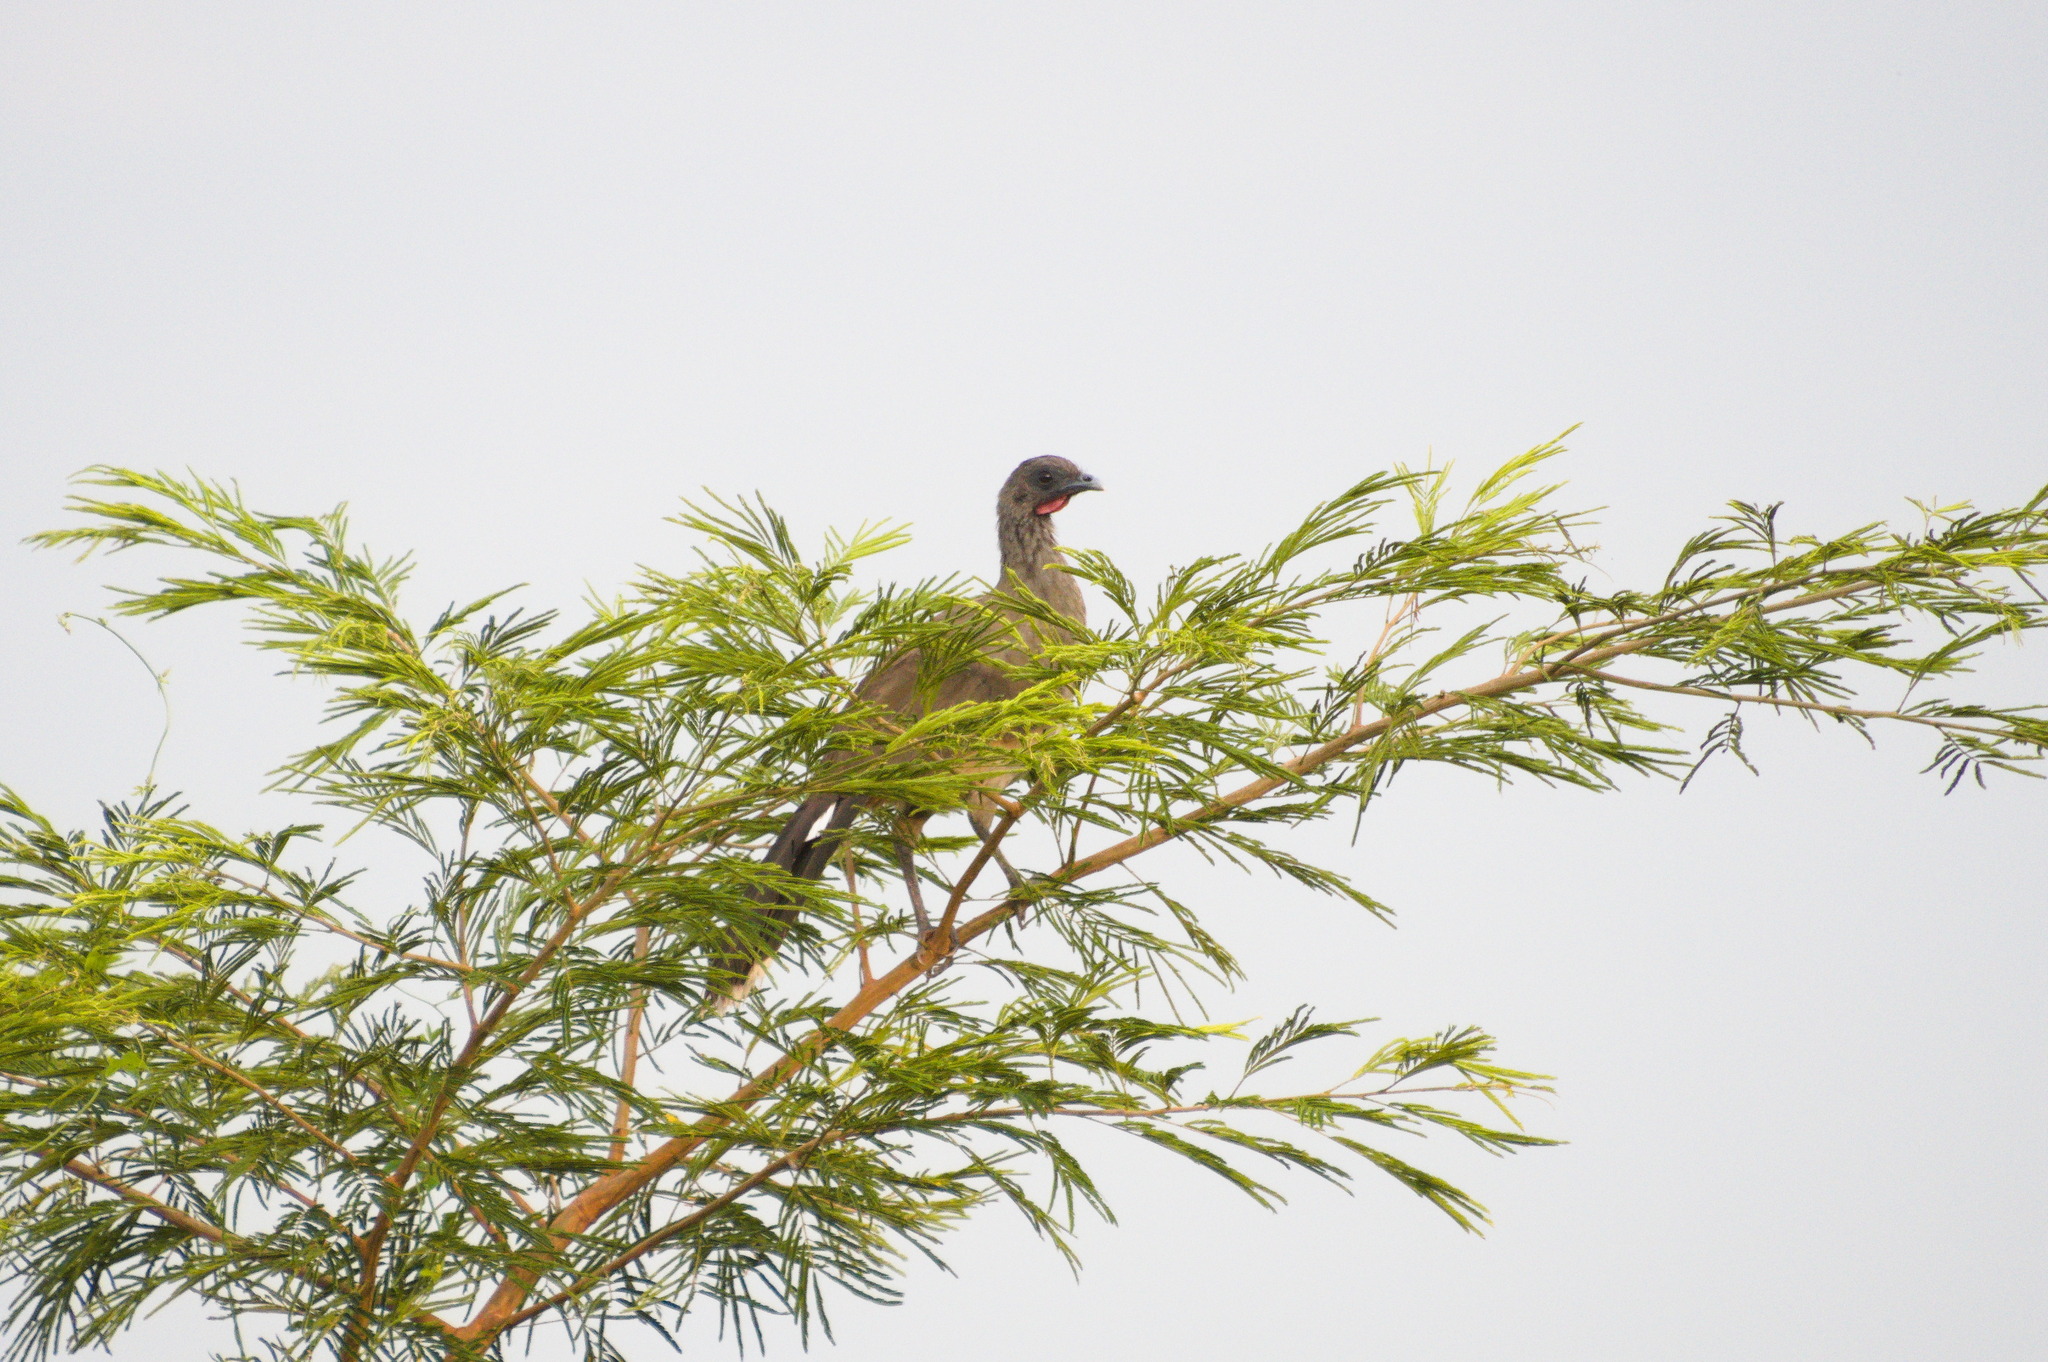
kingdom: Animalia
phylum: Chordata
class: Aves
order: Galliformes
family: Cracidae
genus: Ortalis
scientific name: Ortalis ruficauda
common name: Rufous-vented chachalaca
